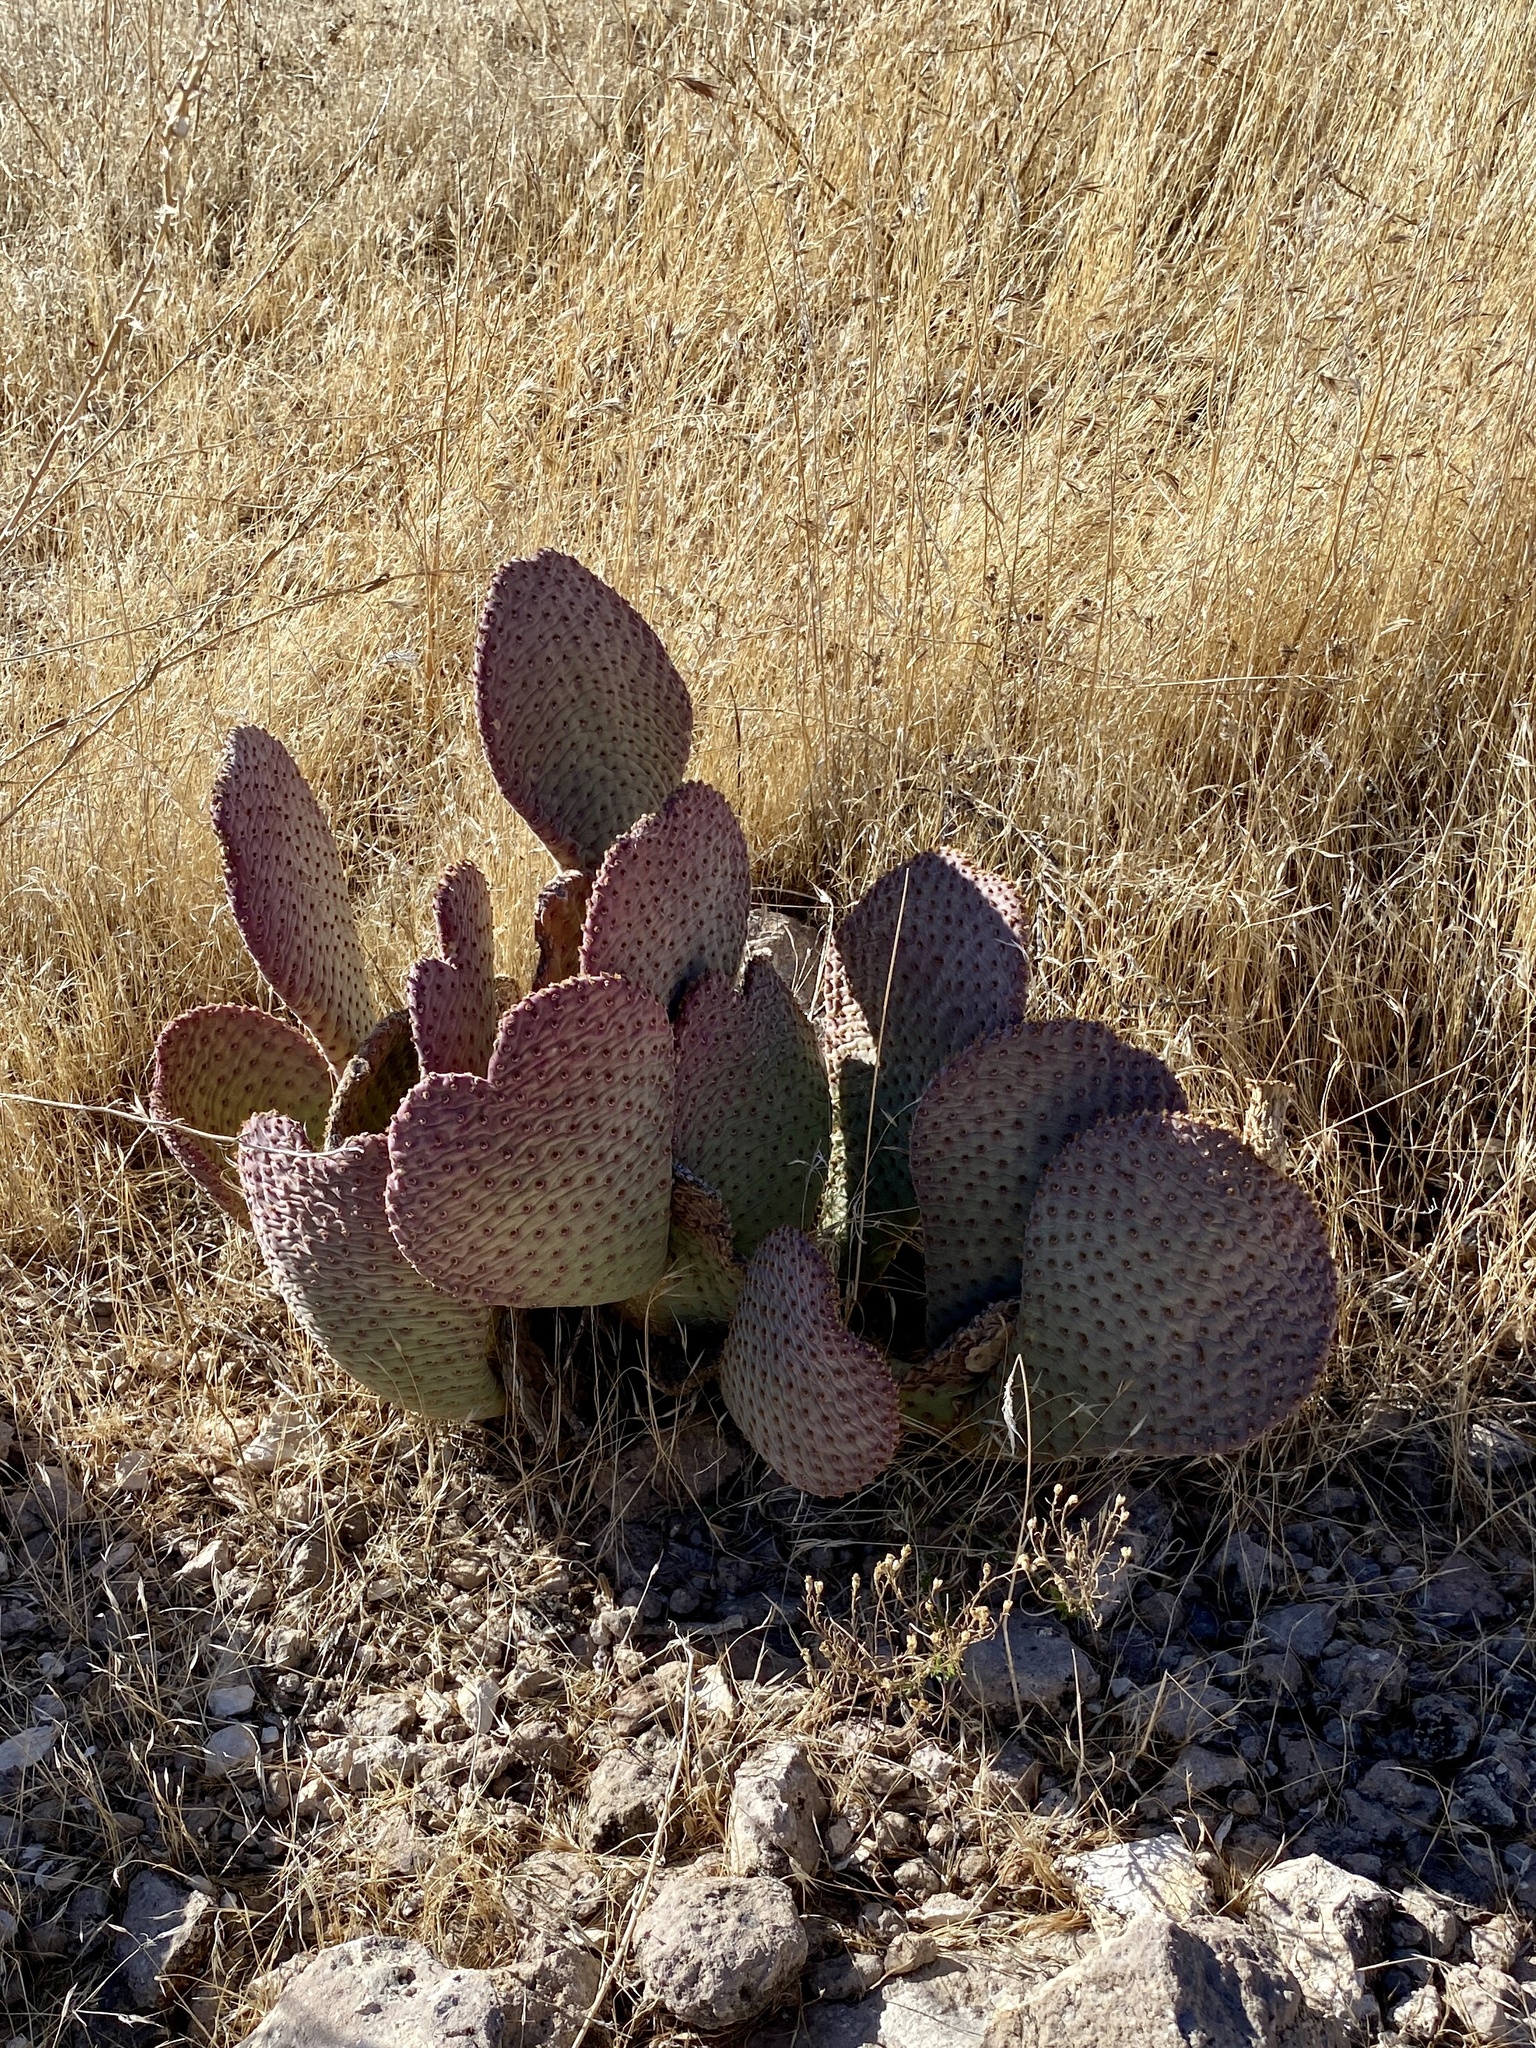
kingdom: Plantae
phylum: Tracheophyta
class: Magnoliopsida
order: Caryophyllales
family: Cactaceae
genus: Opuntia
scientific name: Opuntia basilaris
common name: Beavertail prickly-pear
